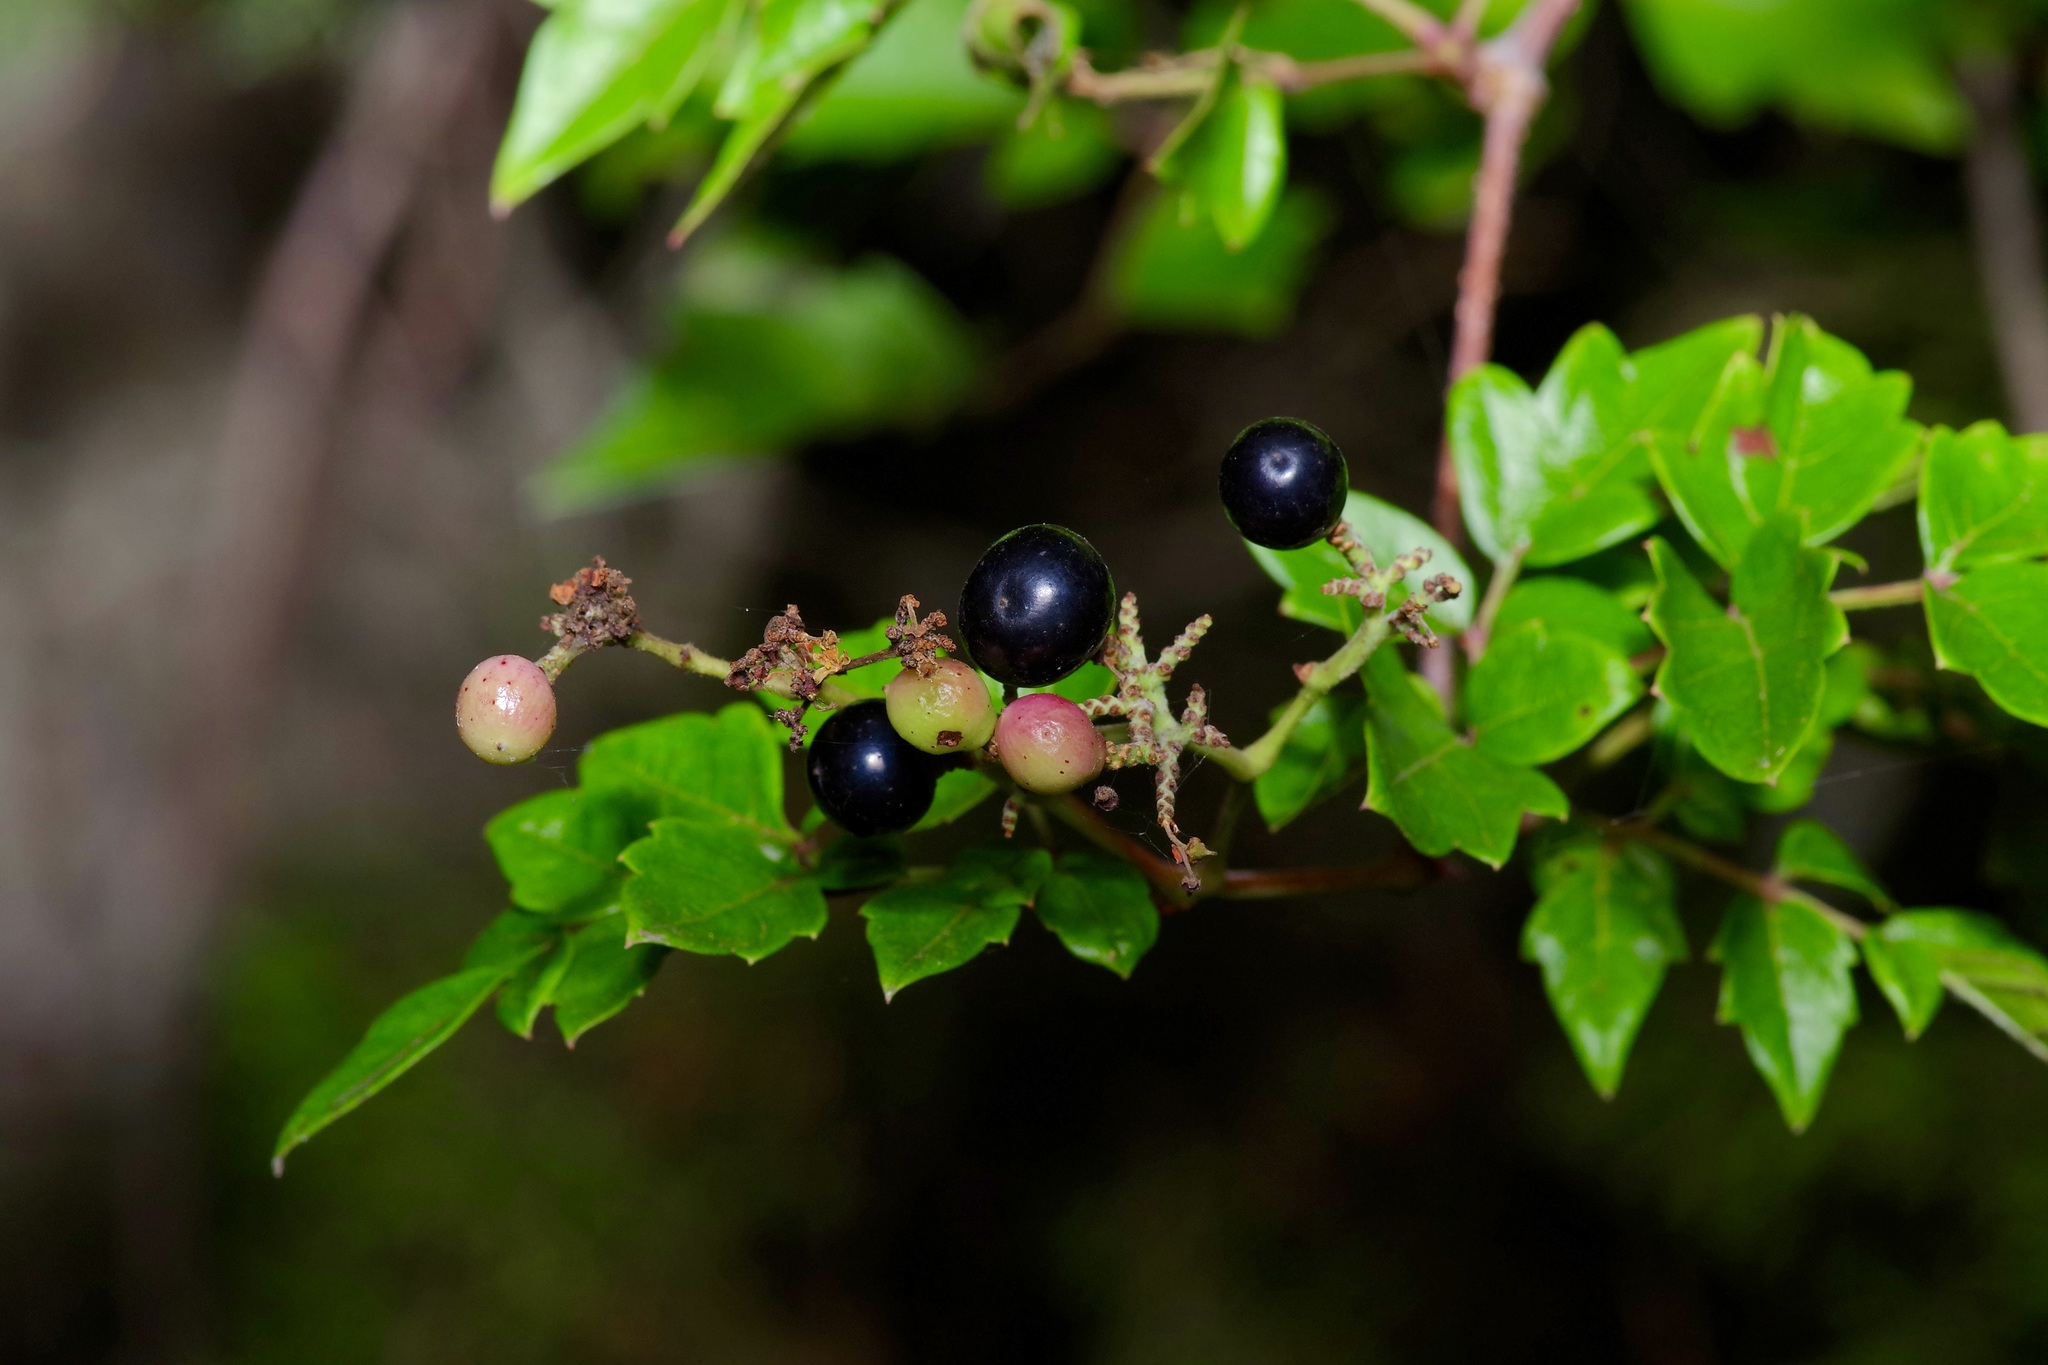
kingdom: Plantae
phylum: Tracheophyta
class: Magnoliopsida
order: Vitales
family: Vitaceae
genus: Nekemias
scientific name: Nekemias arborea
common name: Peppervine
